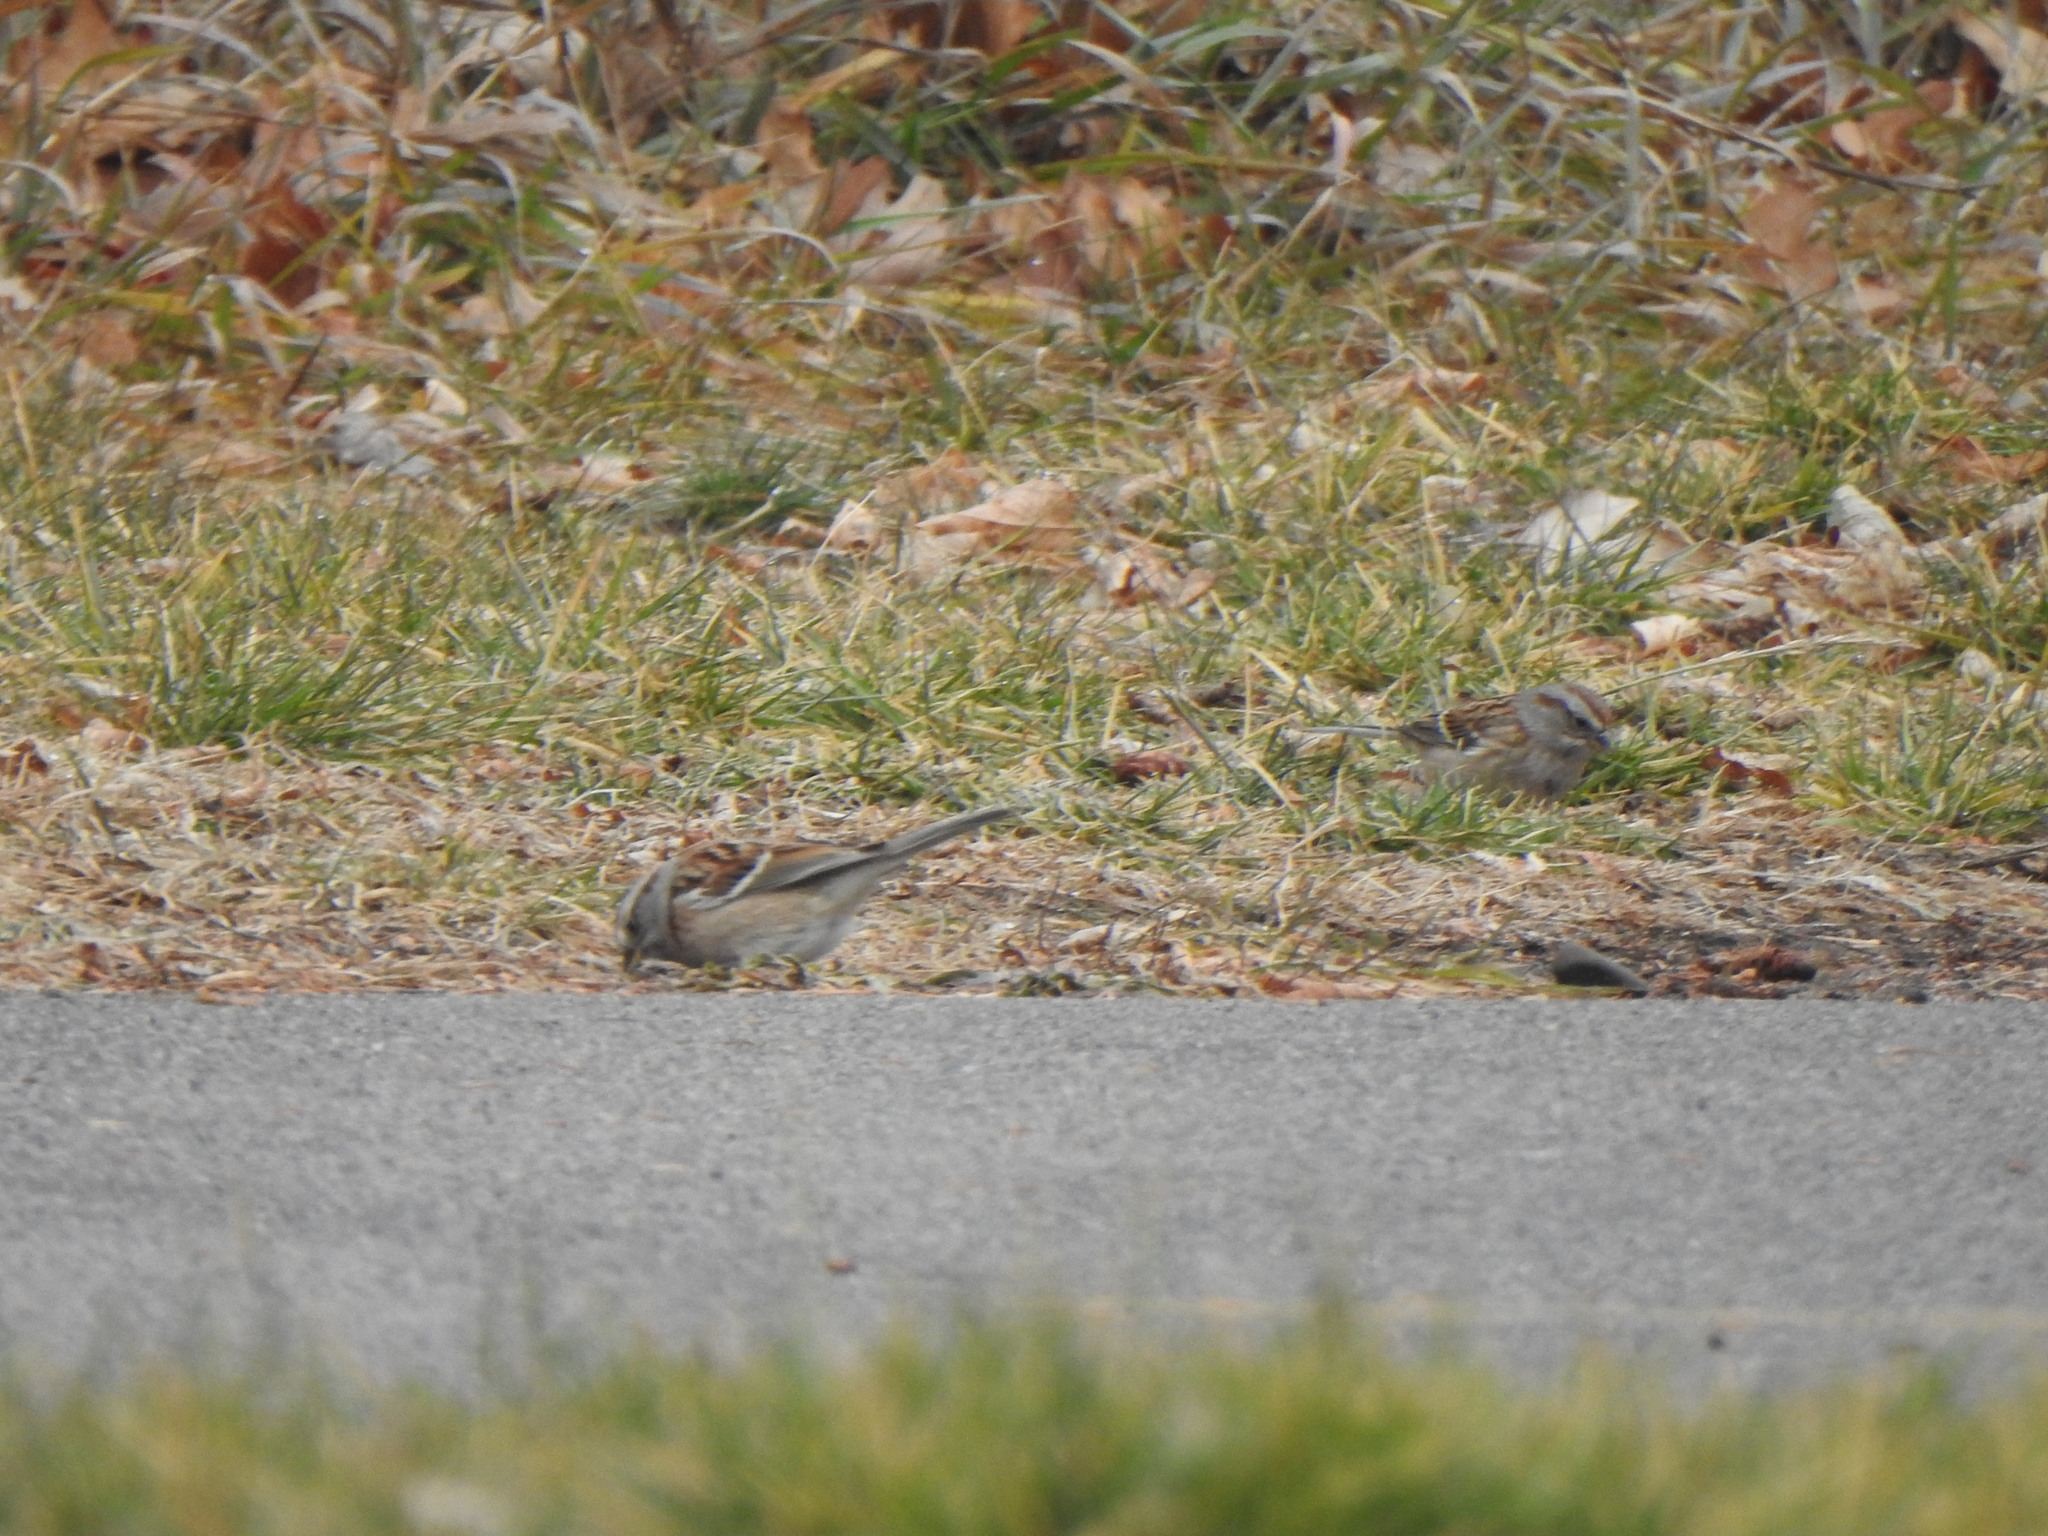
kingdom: Animalia
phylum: Chordata
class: Aves
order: Passeriformes
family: Passerellidae
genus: Spizelloides
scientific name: Spizelloides arborea
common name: American tree sparrow
